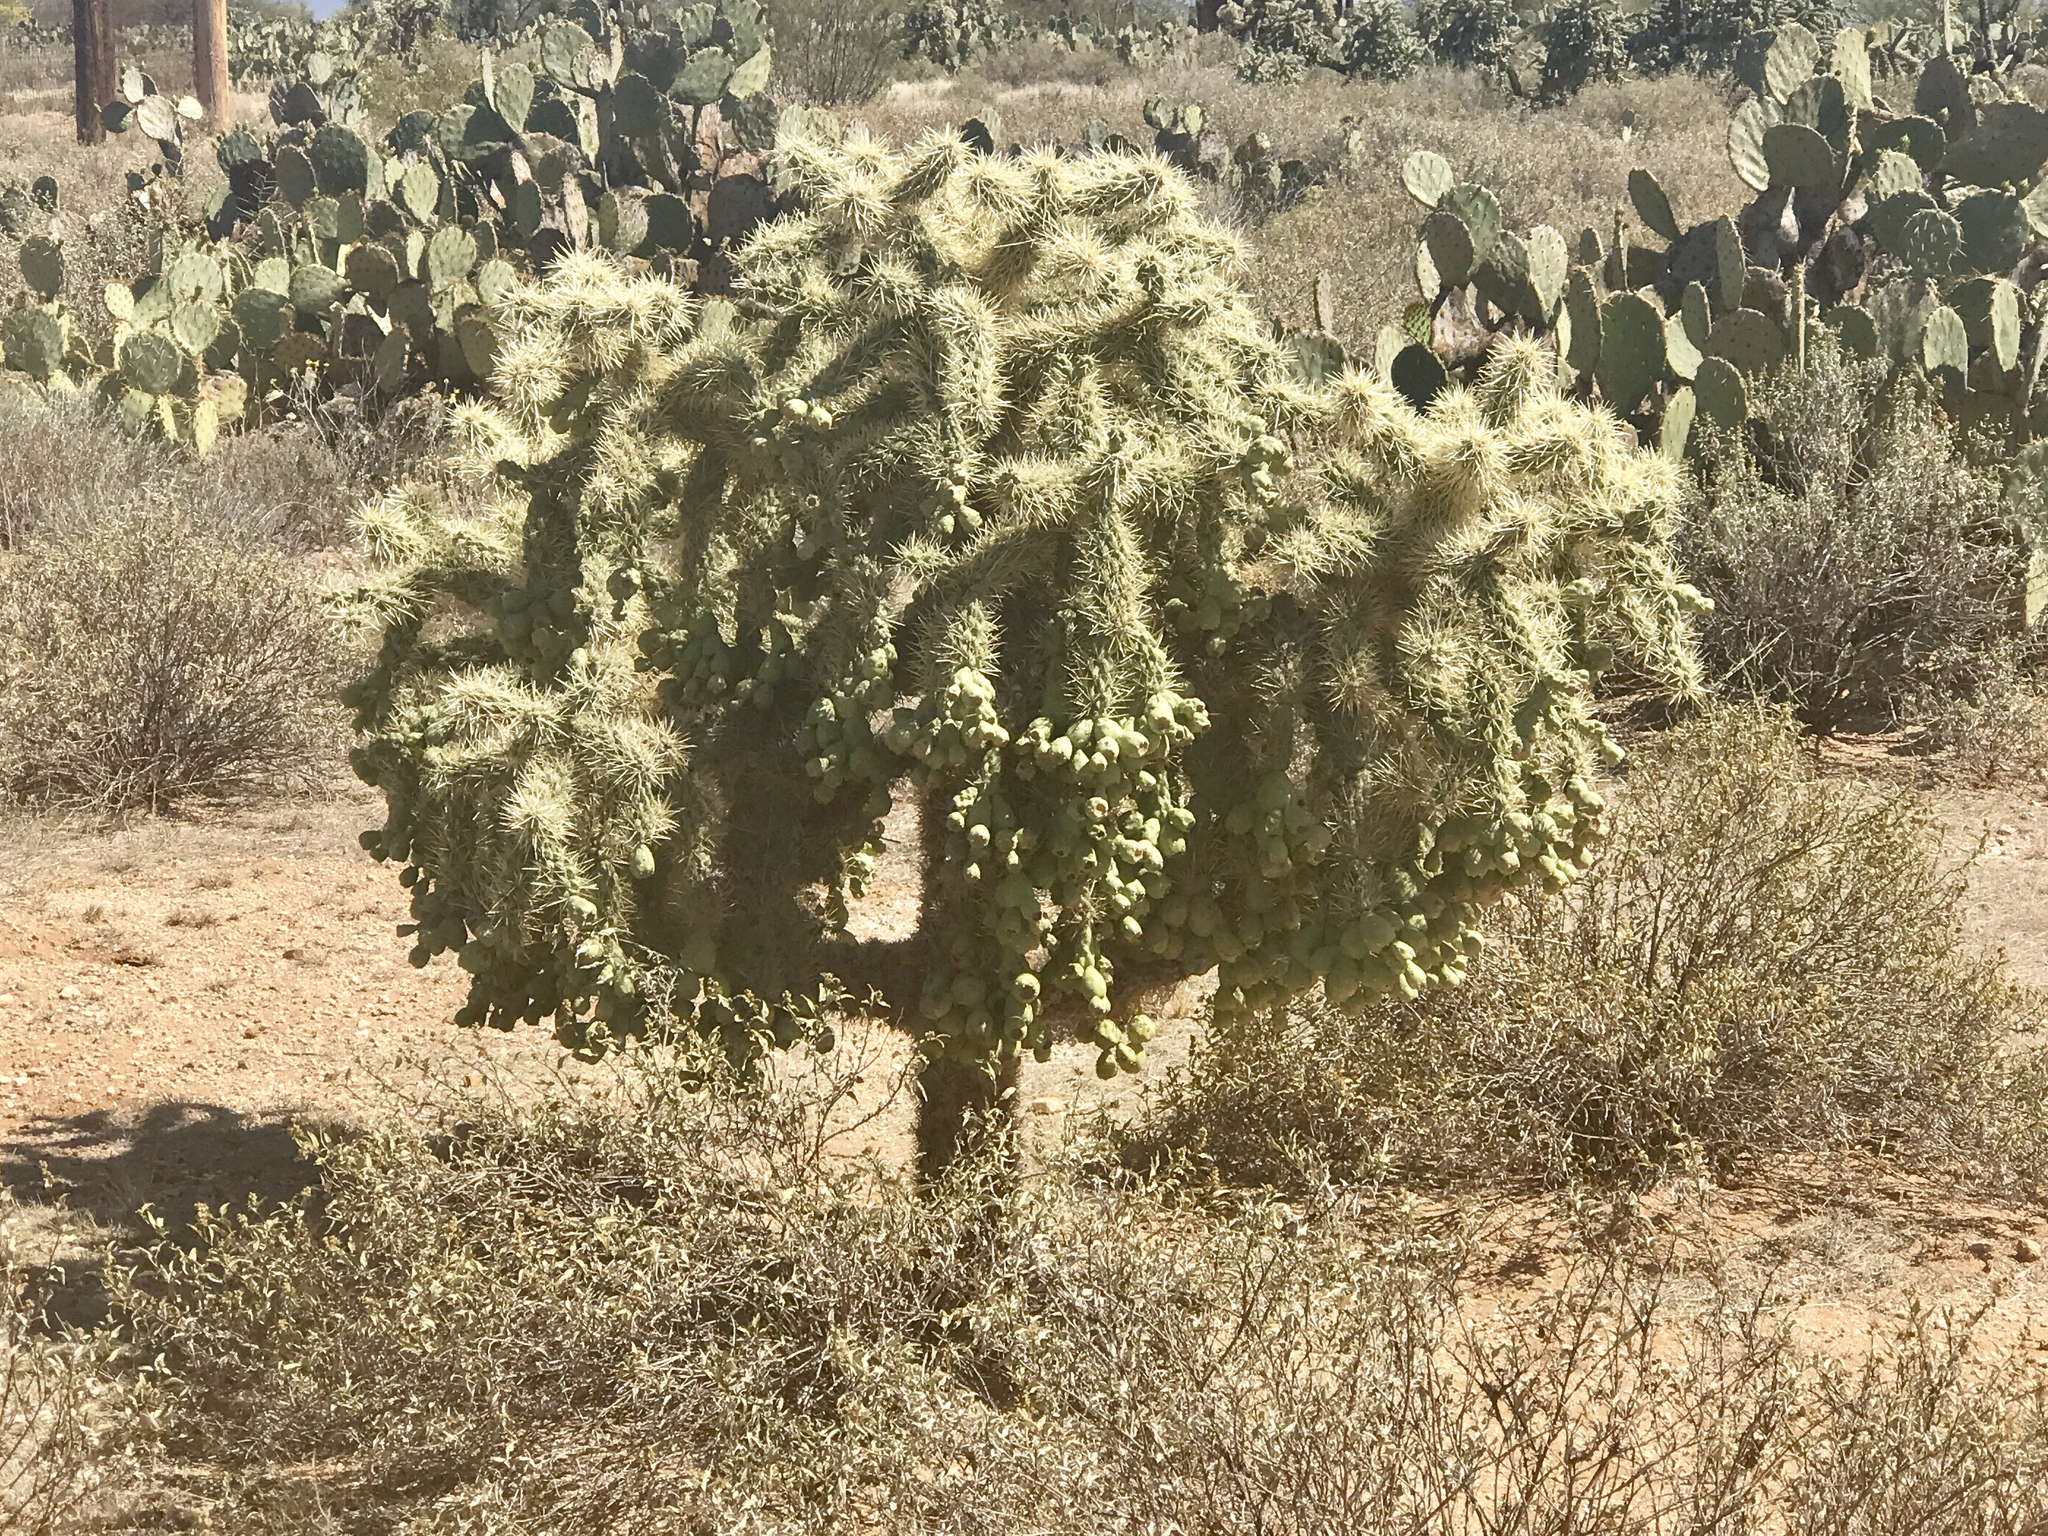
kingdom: Plantae
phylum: Tracheophyta
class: Magnoliopsida
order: Caryophyllales
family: Cactaceae
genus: Cylindropuntia
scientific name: Cylindropuntia fulgida
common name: Jumping cholla
